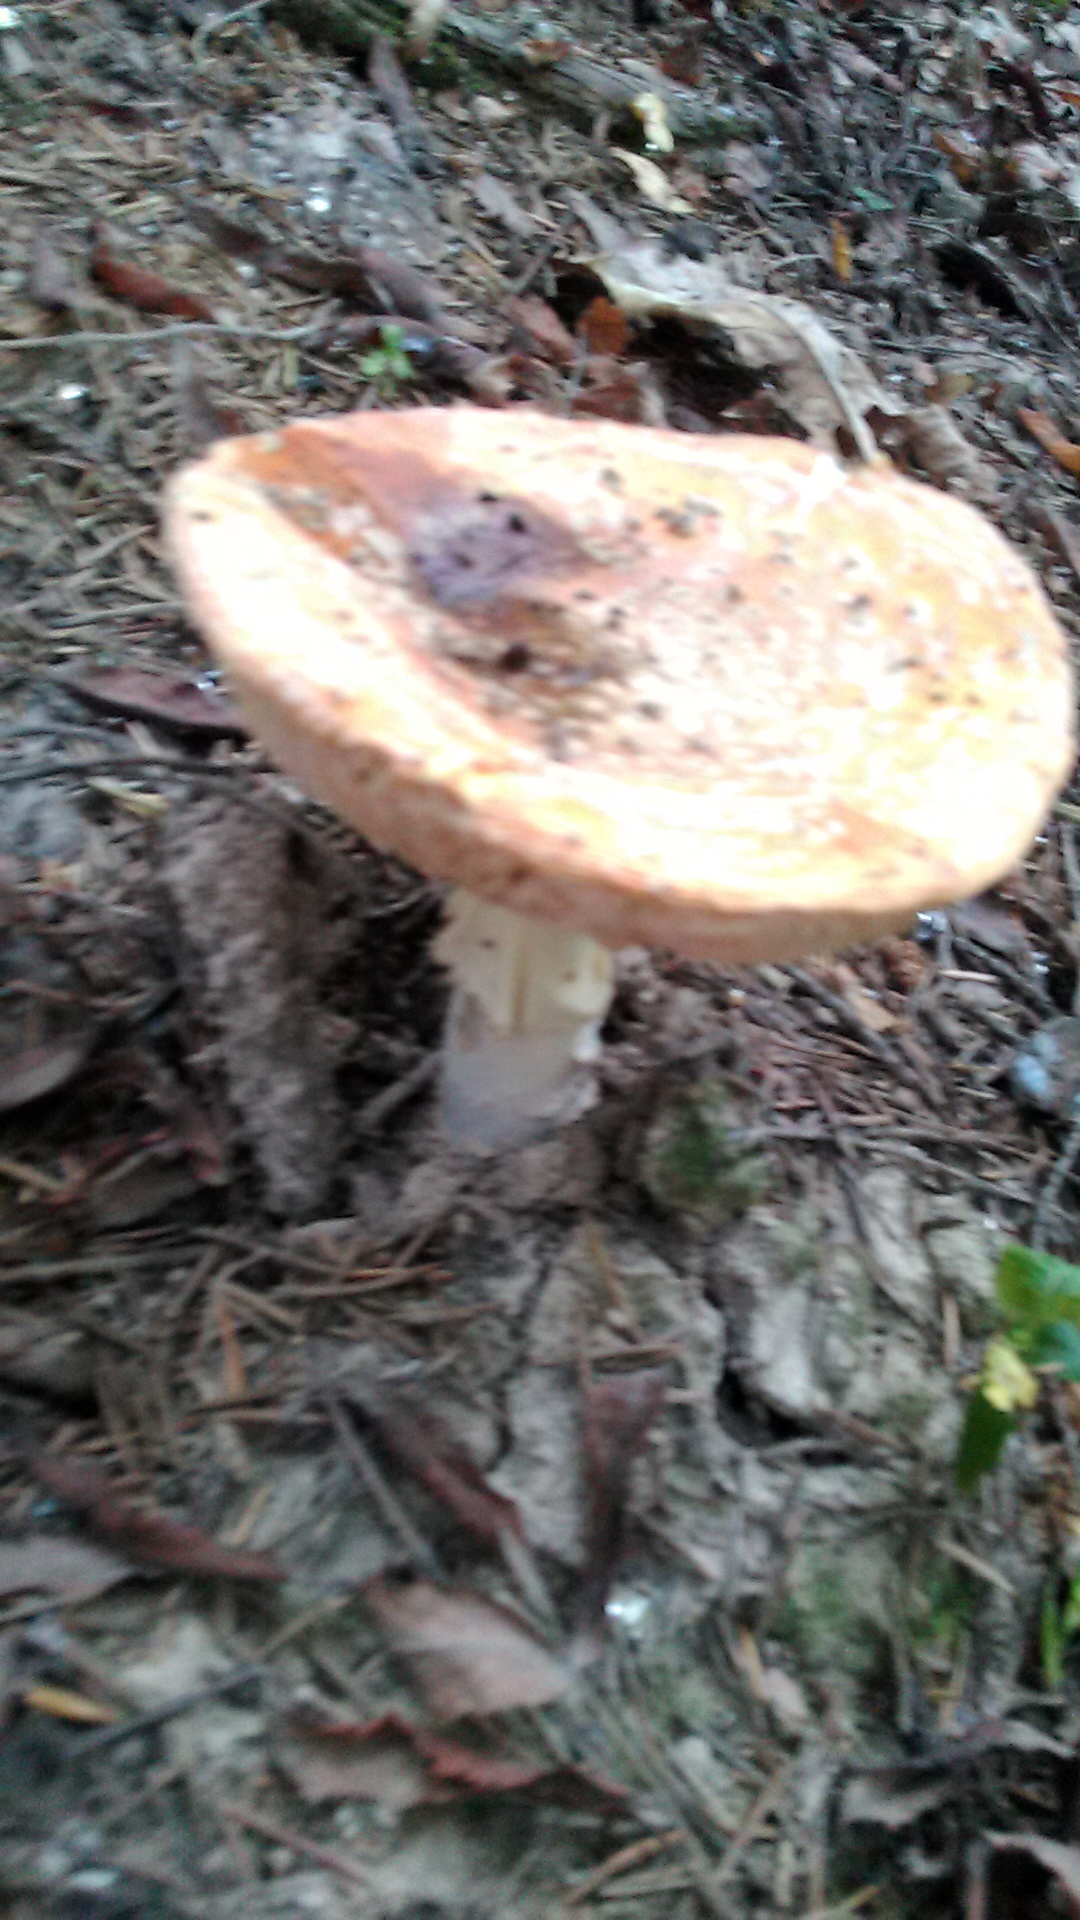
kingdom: Fungi
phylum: Basidiomycota
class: Agaricomycetes
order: Agaricales
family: Amanitaceae
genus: Amanita
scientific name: Amanita muscaria
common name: Fly agaric
